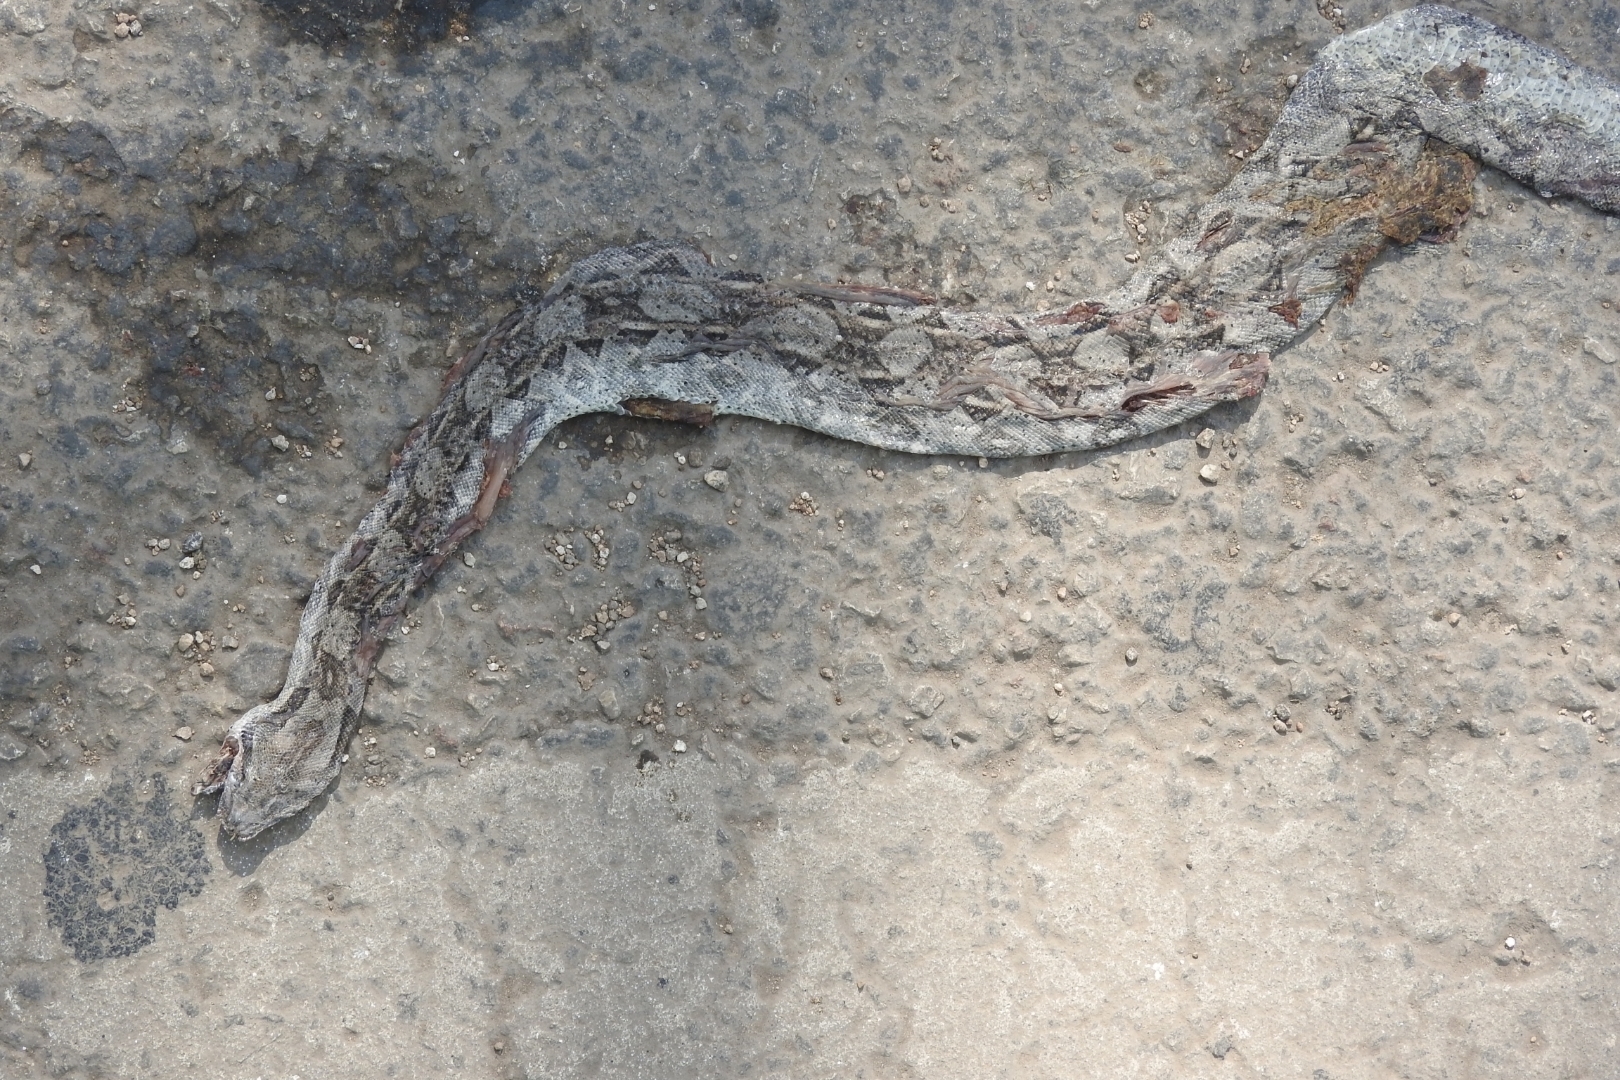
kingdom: Animalia
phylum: Chordata
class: Squamata
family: Boidae
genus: Boa
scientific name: Boa imperator
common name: Central american boa
